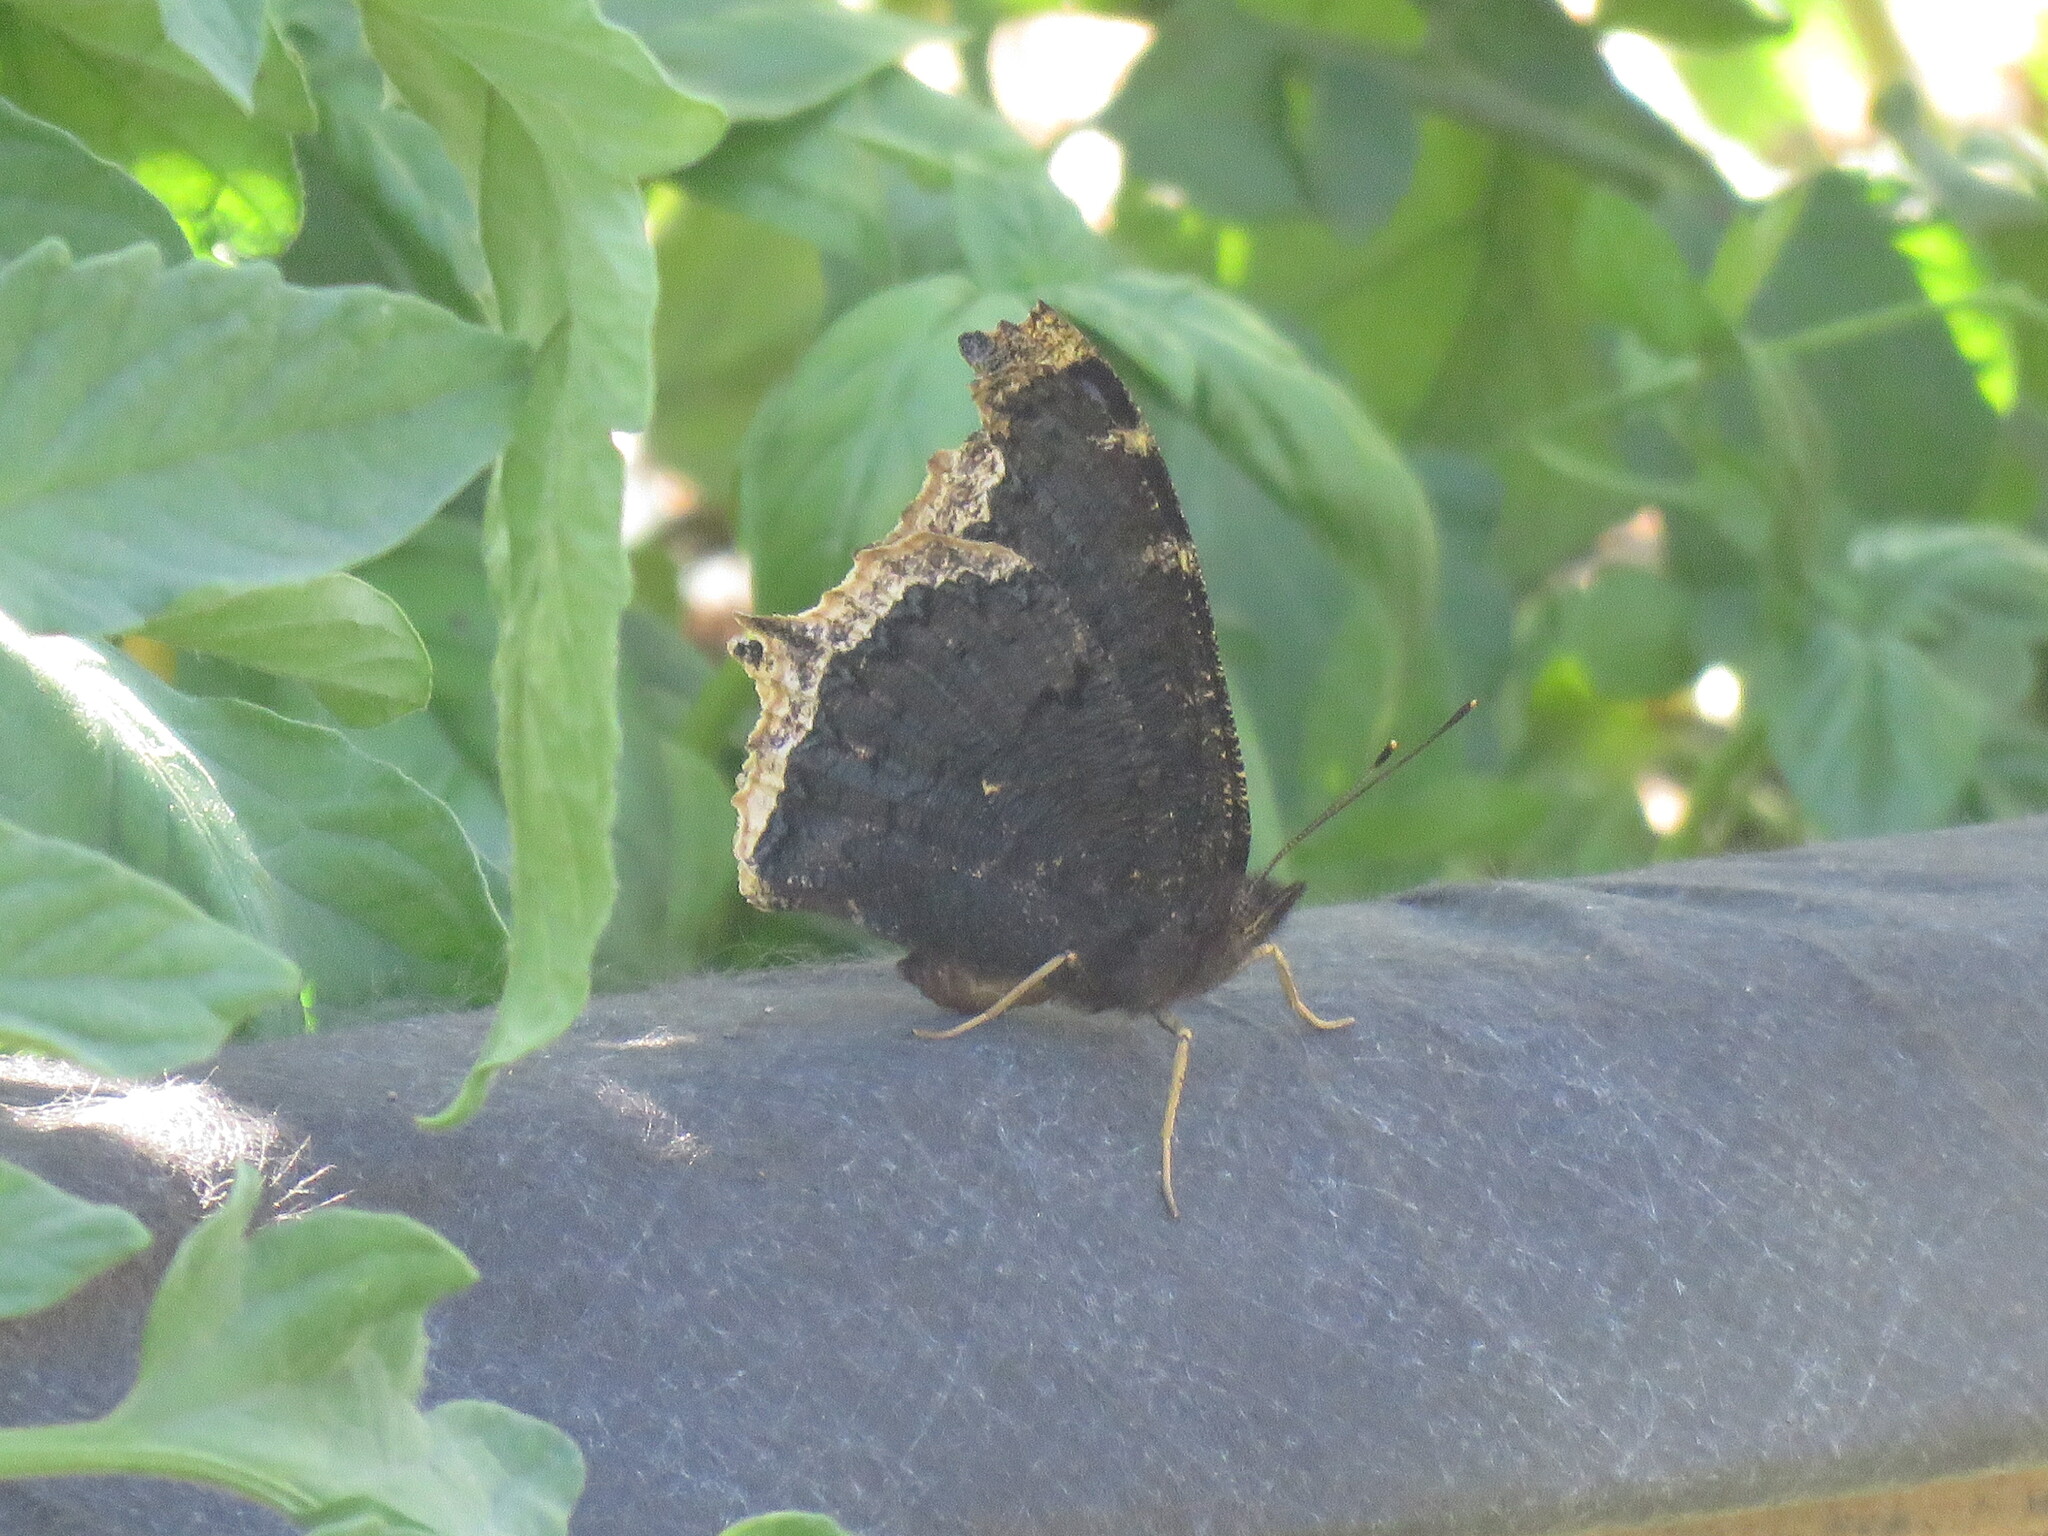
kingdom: Animalia
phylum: Arthropoda
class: Insecta
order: Lepidoptera
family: Nymphalidae
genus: Nymphalis
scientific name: Nymphalis antiopa
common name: Camberwell beauty
